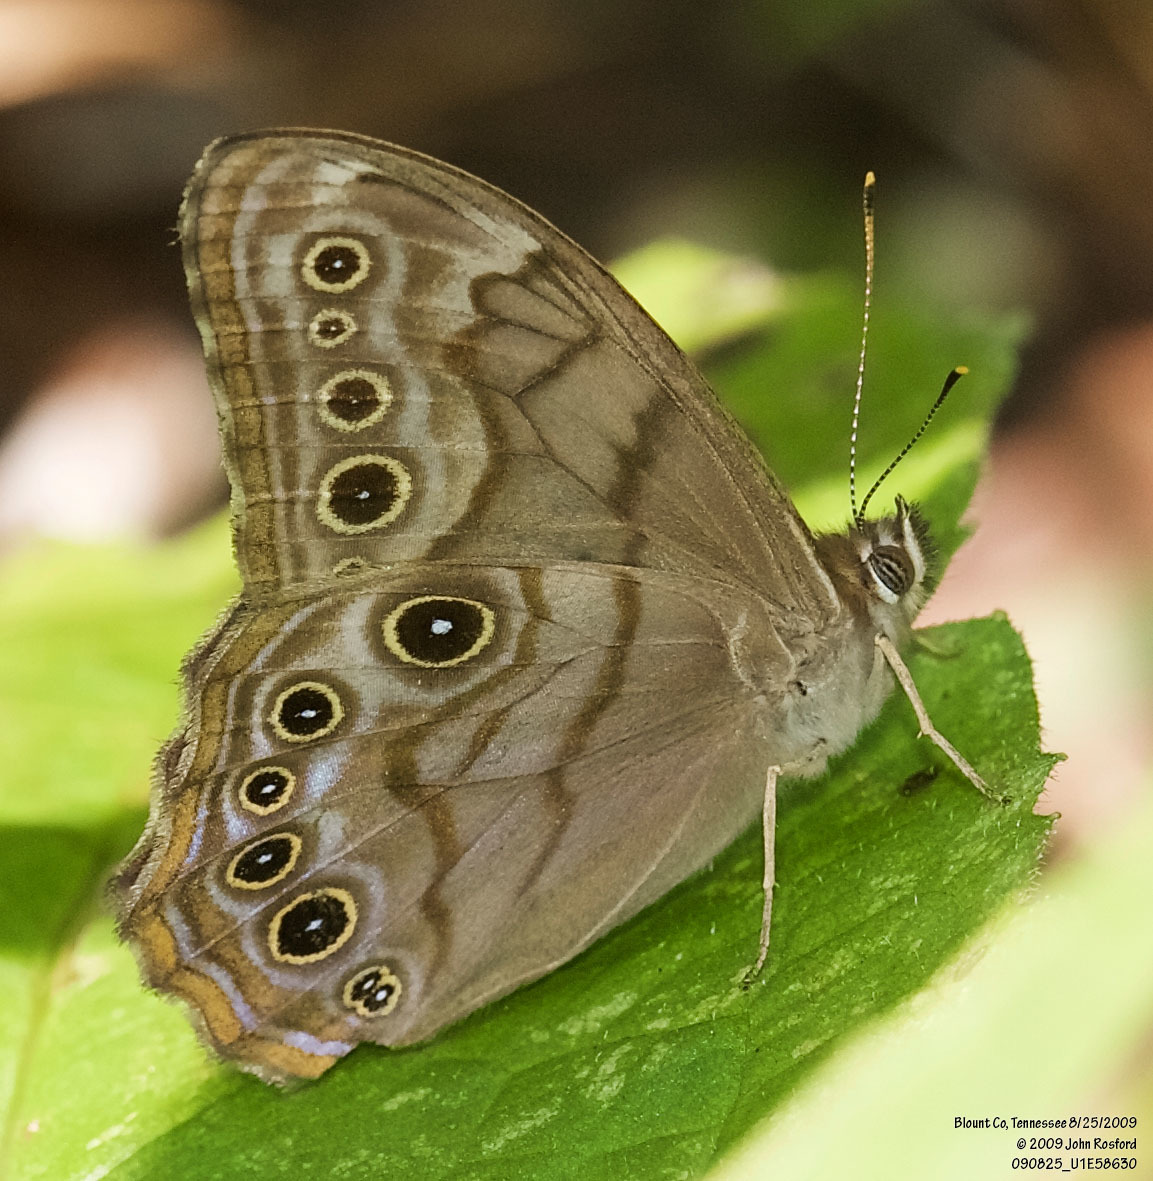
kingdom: Animalia
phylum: Arthropoda
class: Insecta
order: Lepidoptera
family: Nymphalidae
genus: Lethe
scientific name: Lethe creola
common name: Creole pearly-eye
